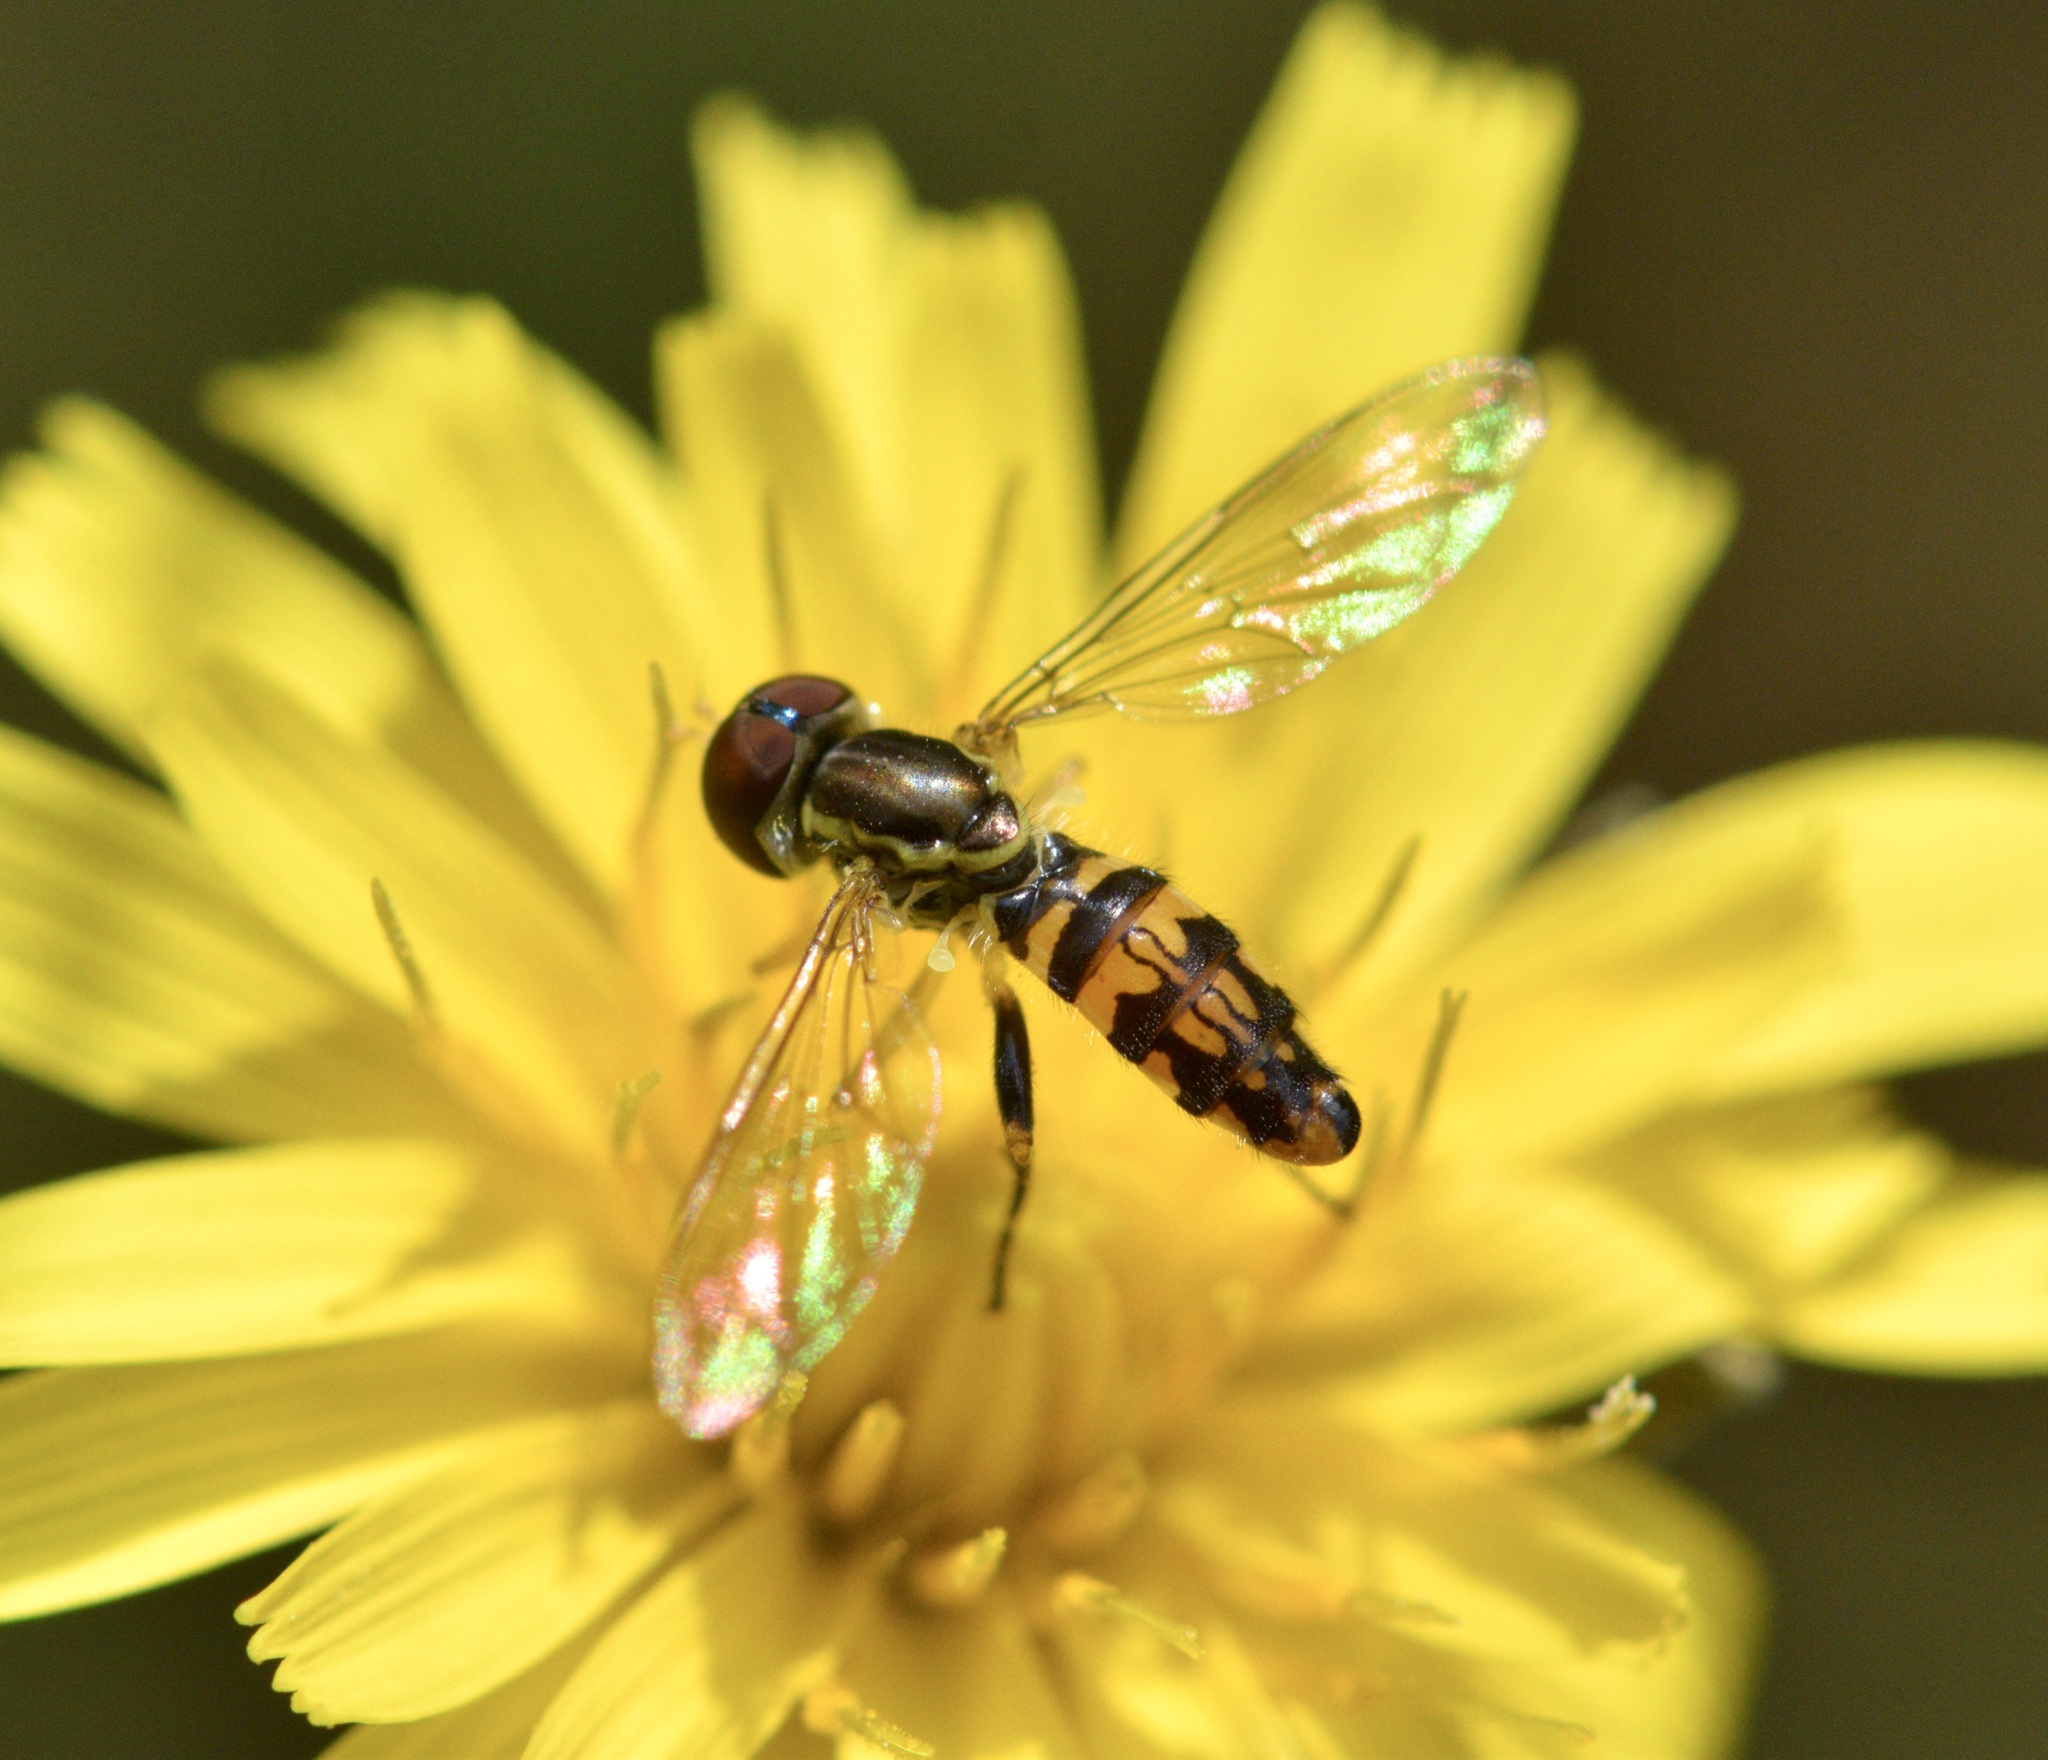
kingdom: Animalia
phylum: Arthropoda
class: Insecta
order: Diptera
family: Syrphidae
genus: Toxomerus
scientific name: Toxomerus geminatus
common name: Eastern calligrapher
